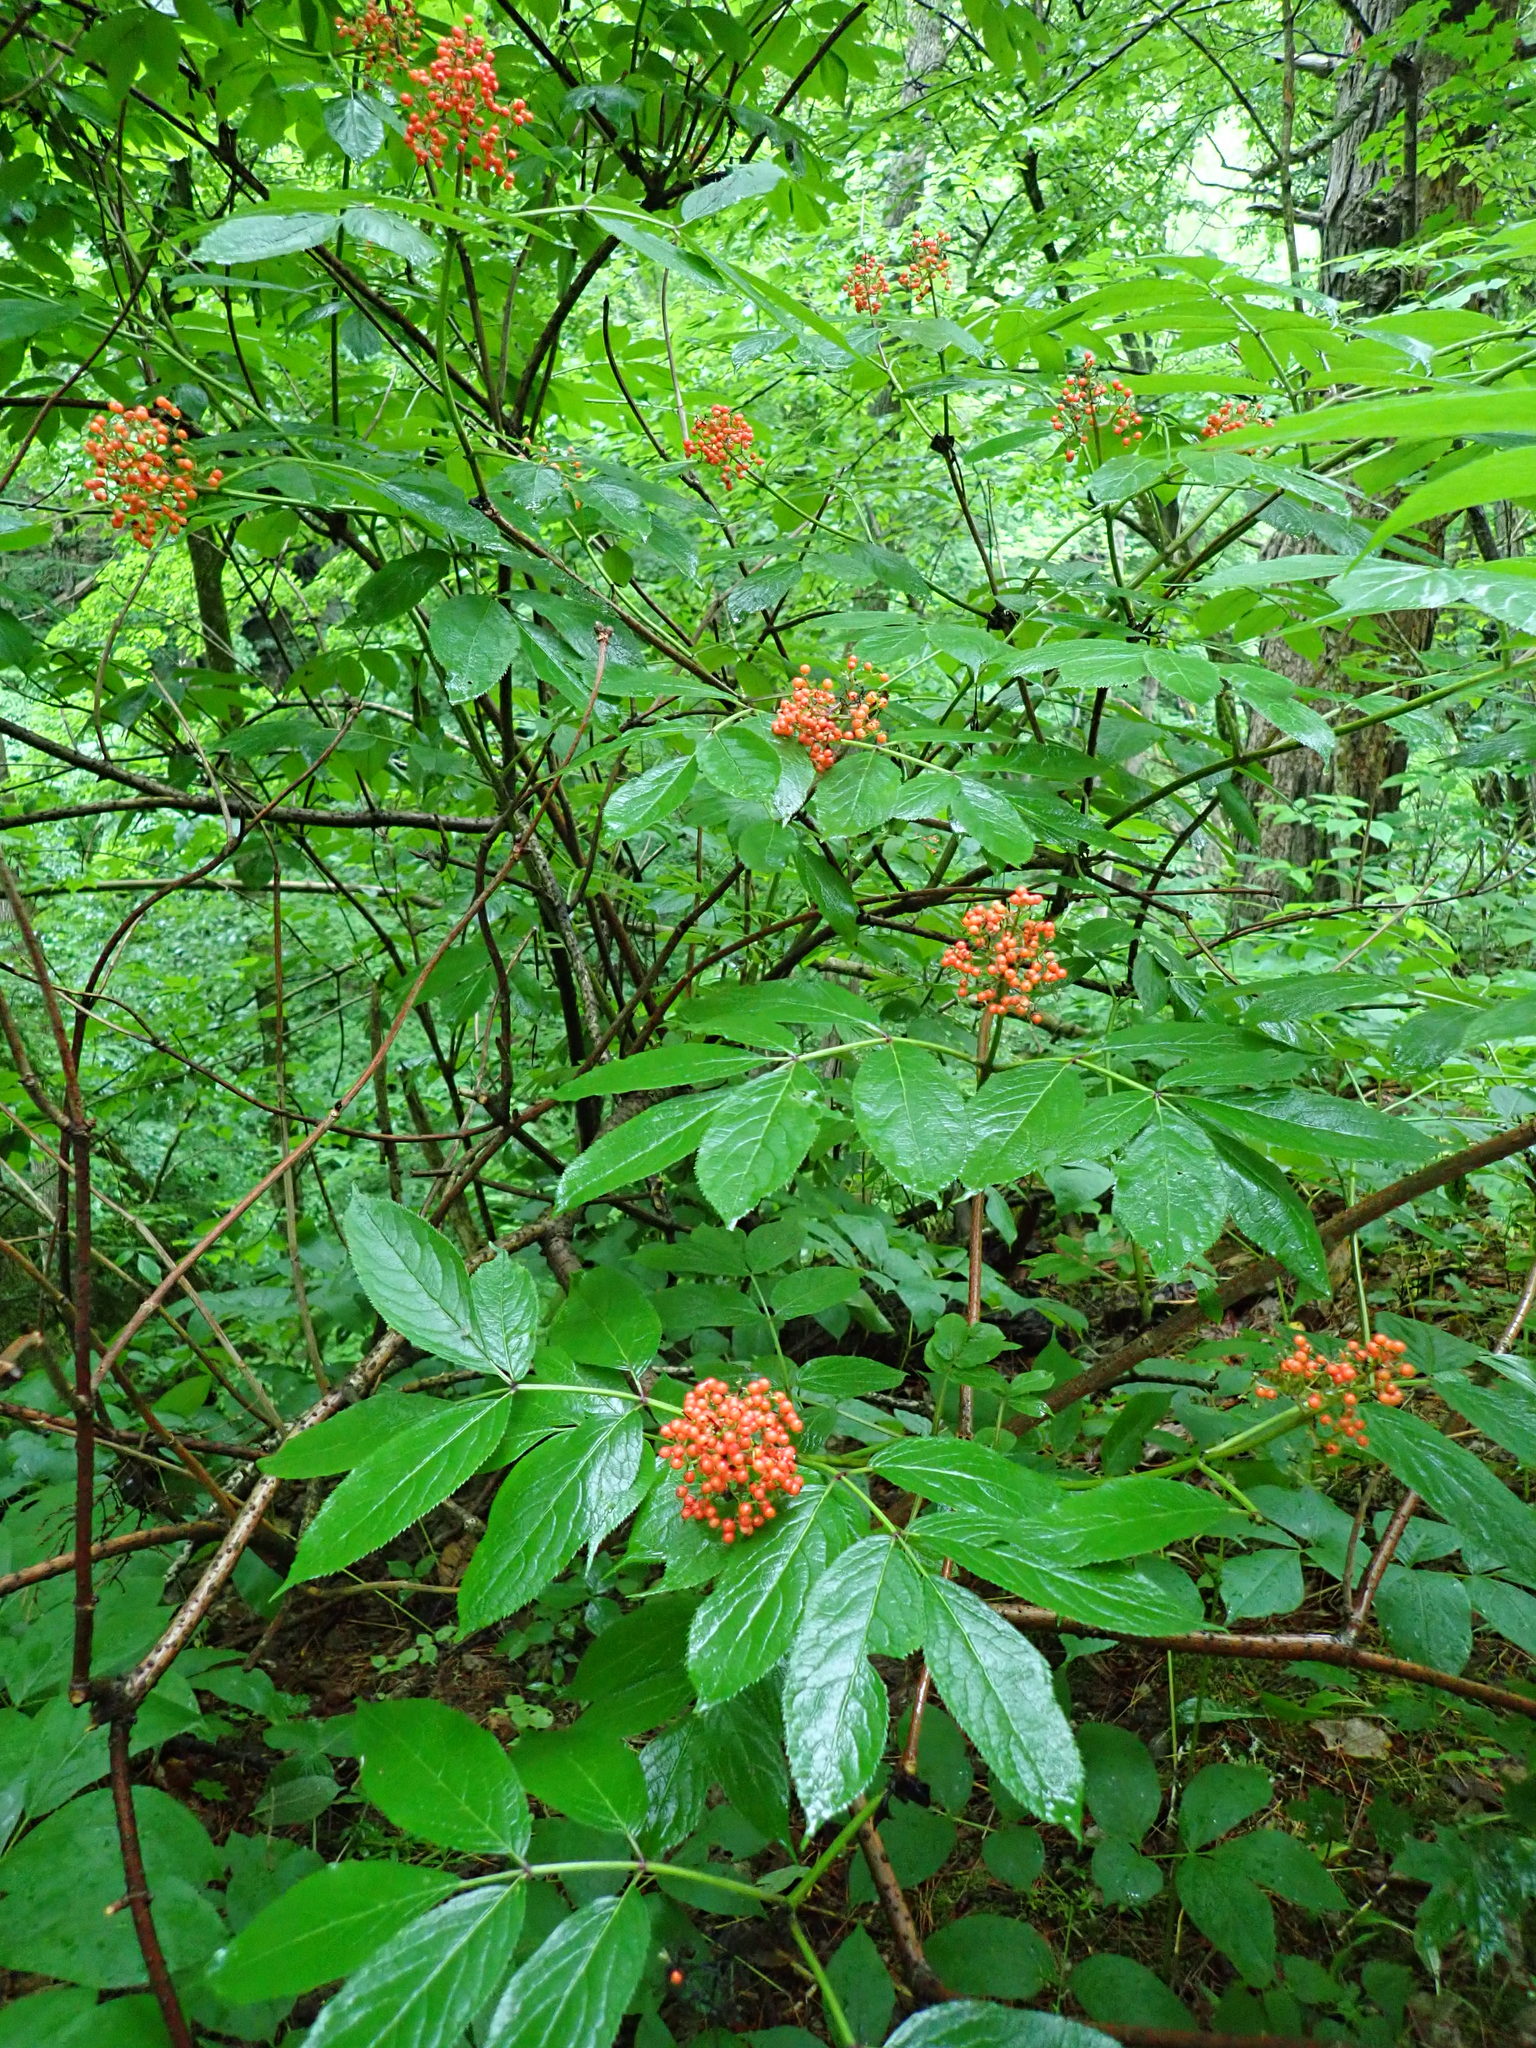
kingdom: Plantae
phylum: Tracheophyta
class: Magnoliopsida
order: Dipsacales
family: Viburnaceae
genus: Sambucus
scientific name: Sambucus racemosa
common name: Red-berried elder
